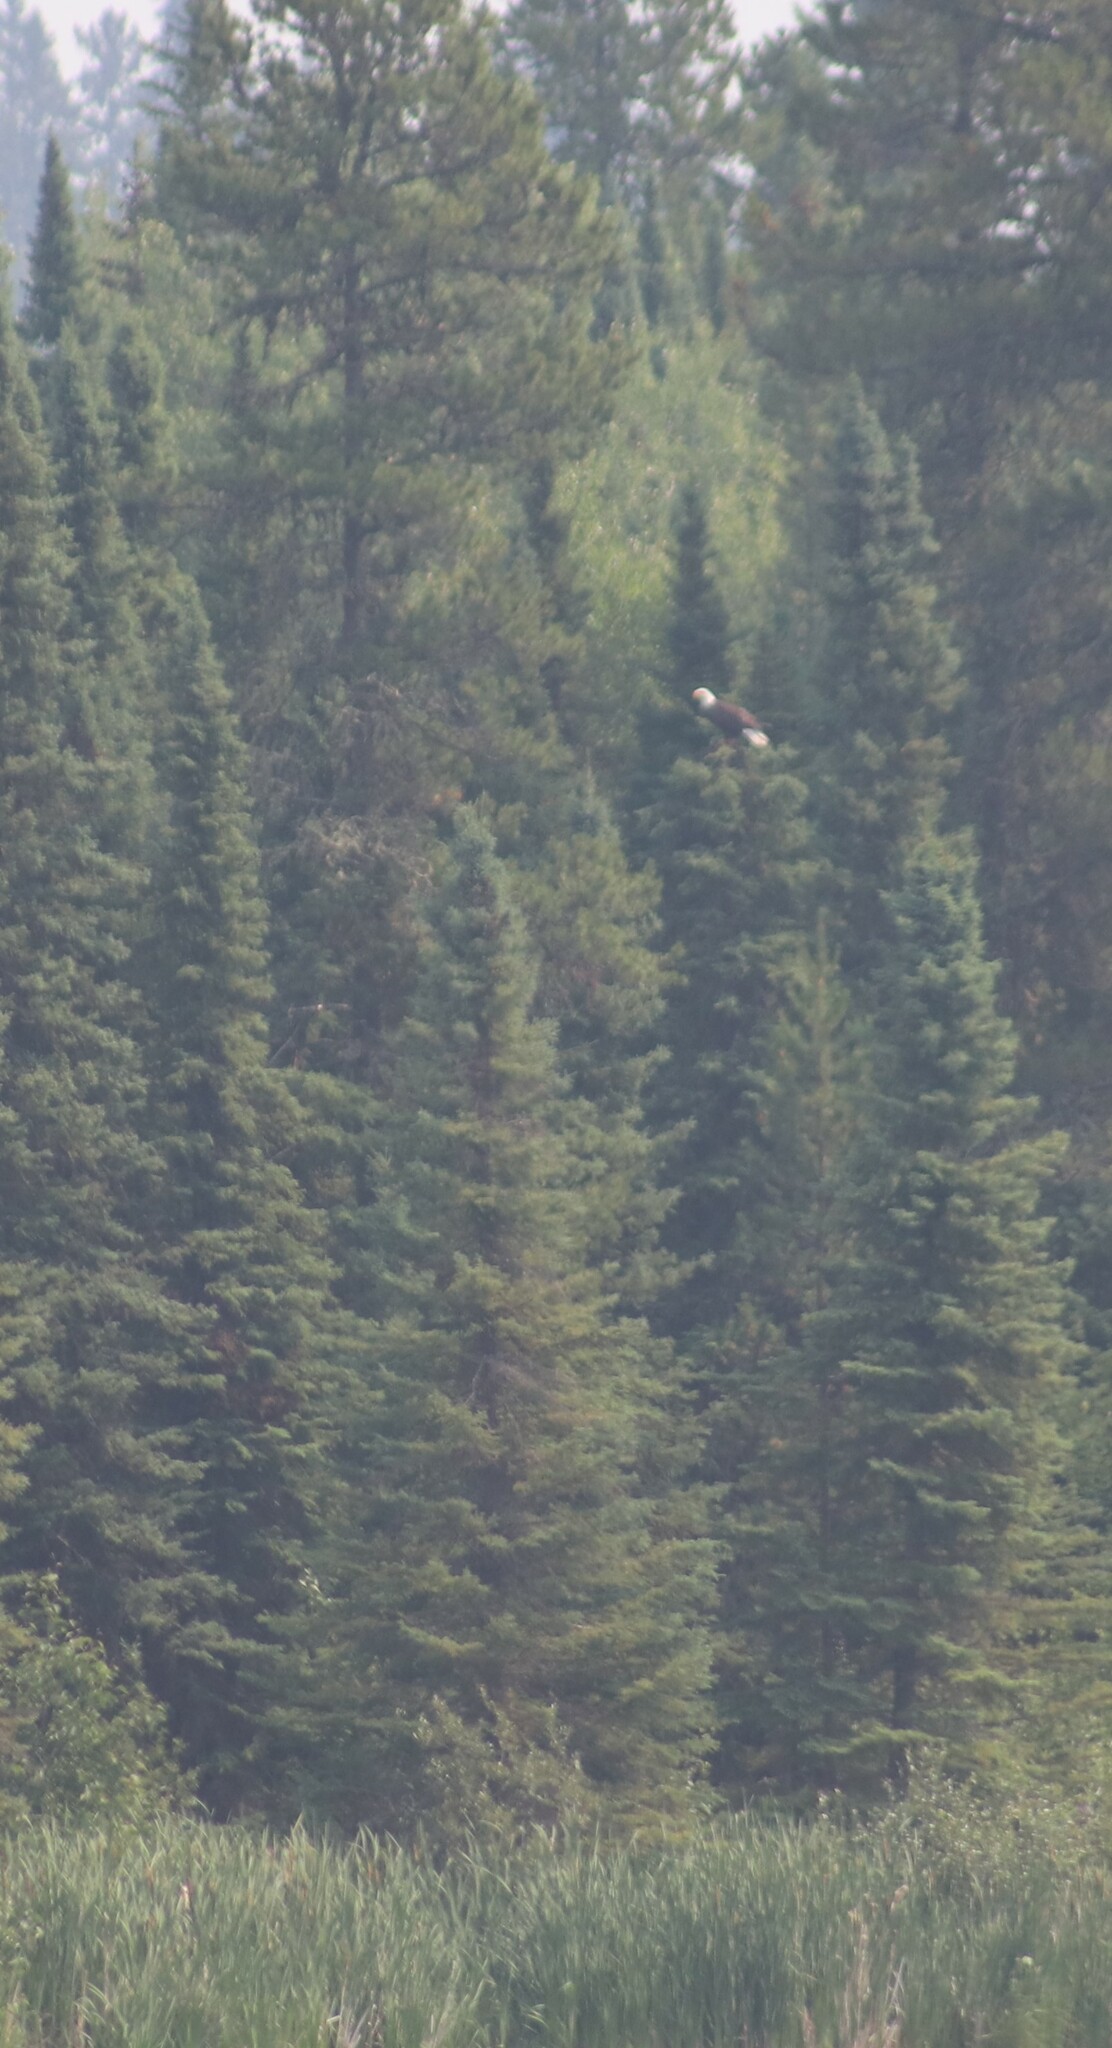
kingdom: Animalia
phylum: Chordata
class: Aves
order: Accipitriformes
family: Accipitridae
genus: Haliaeetus
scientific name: Haliaeetus leucocephalus
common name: Bald eagle
